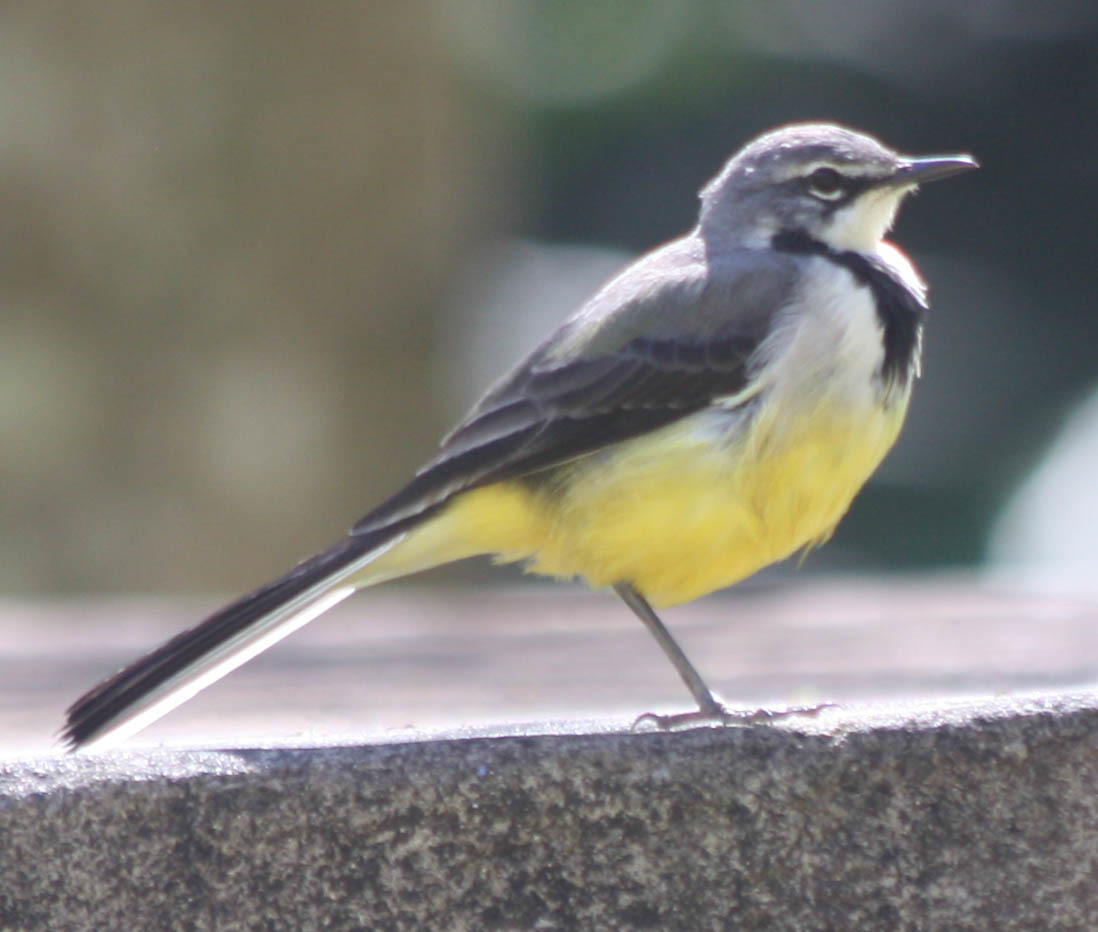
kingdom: Animalia
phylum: Chordata
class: Aves
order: Passeriformes
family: Motacillidae
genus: Motacilla
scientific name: Motacilla flaviventris
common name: Madagascar wagtail
